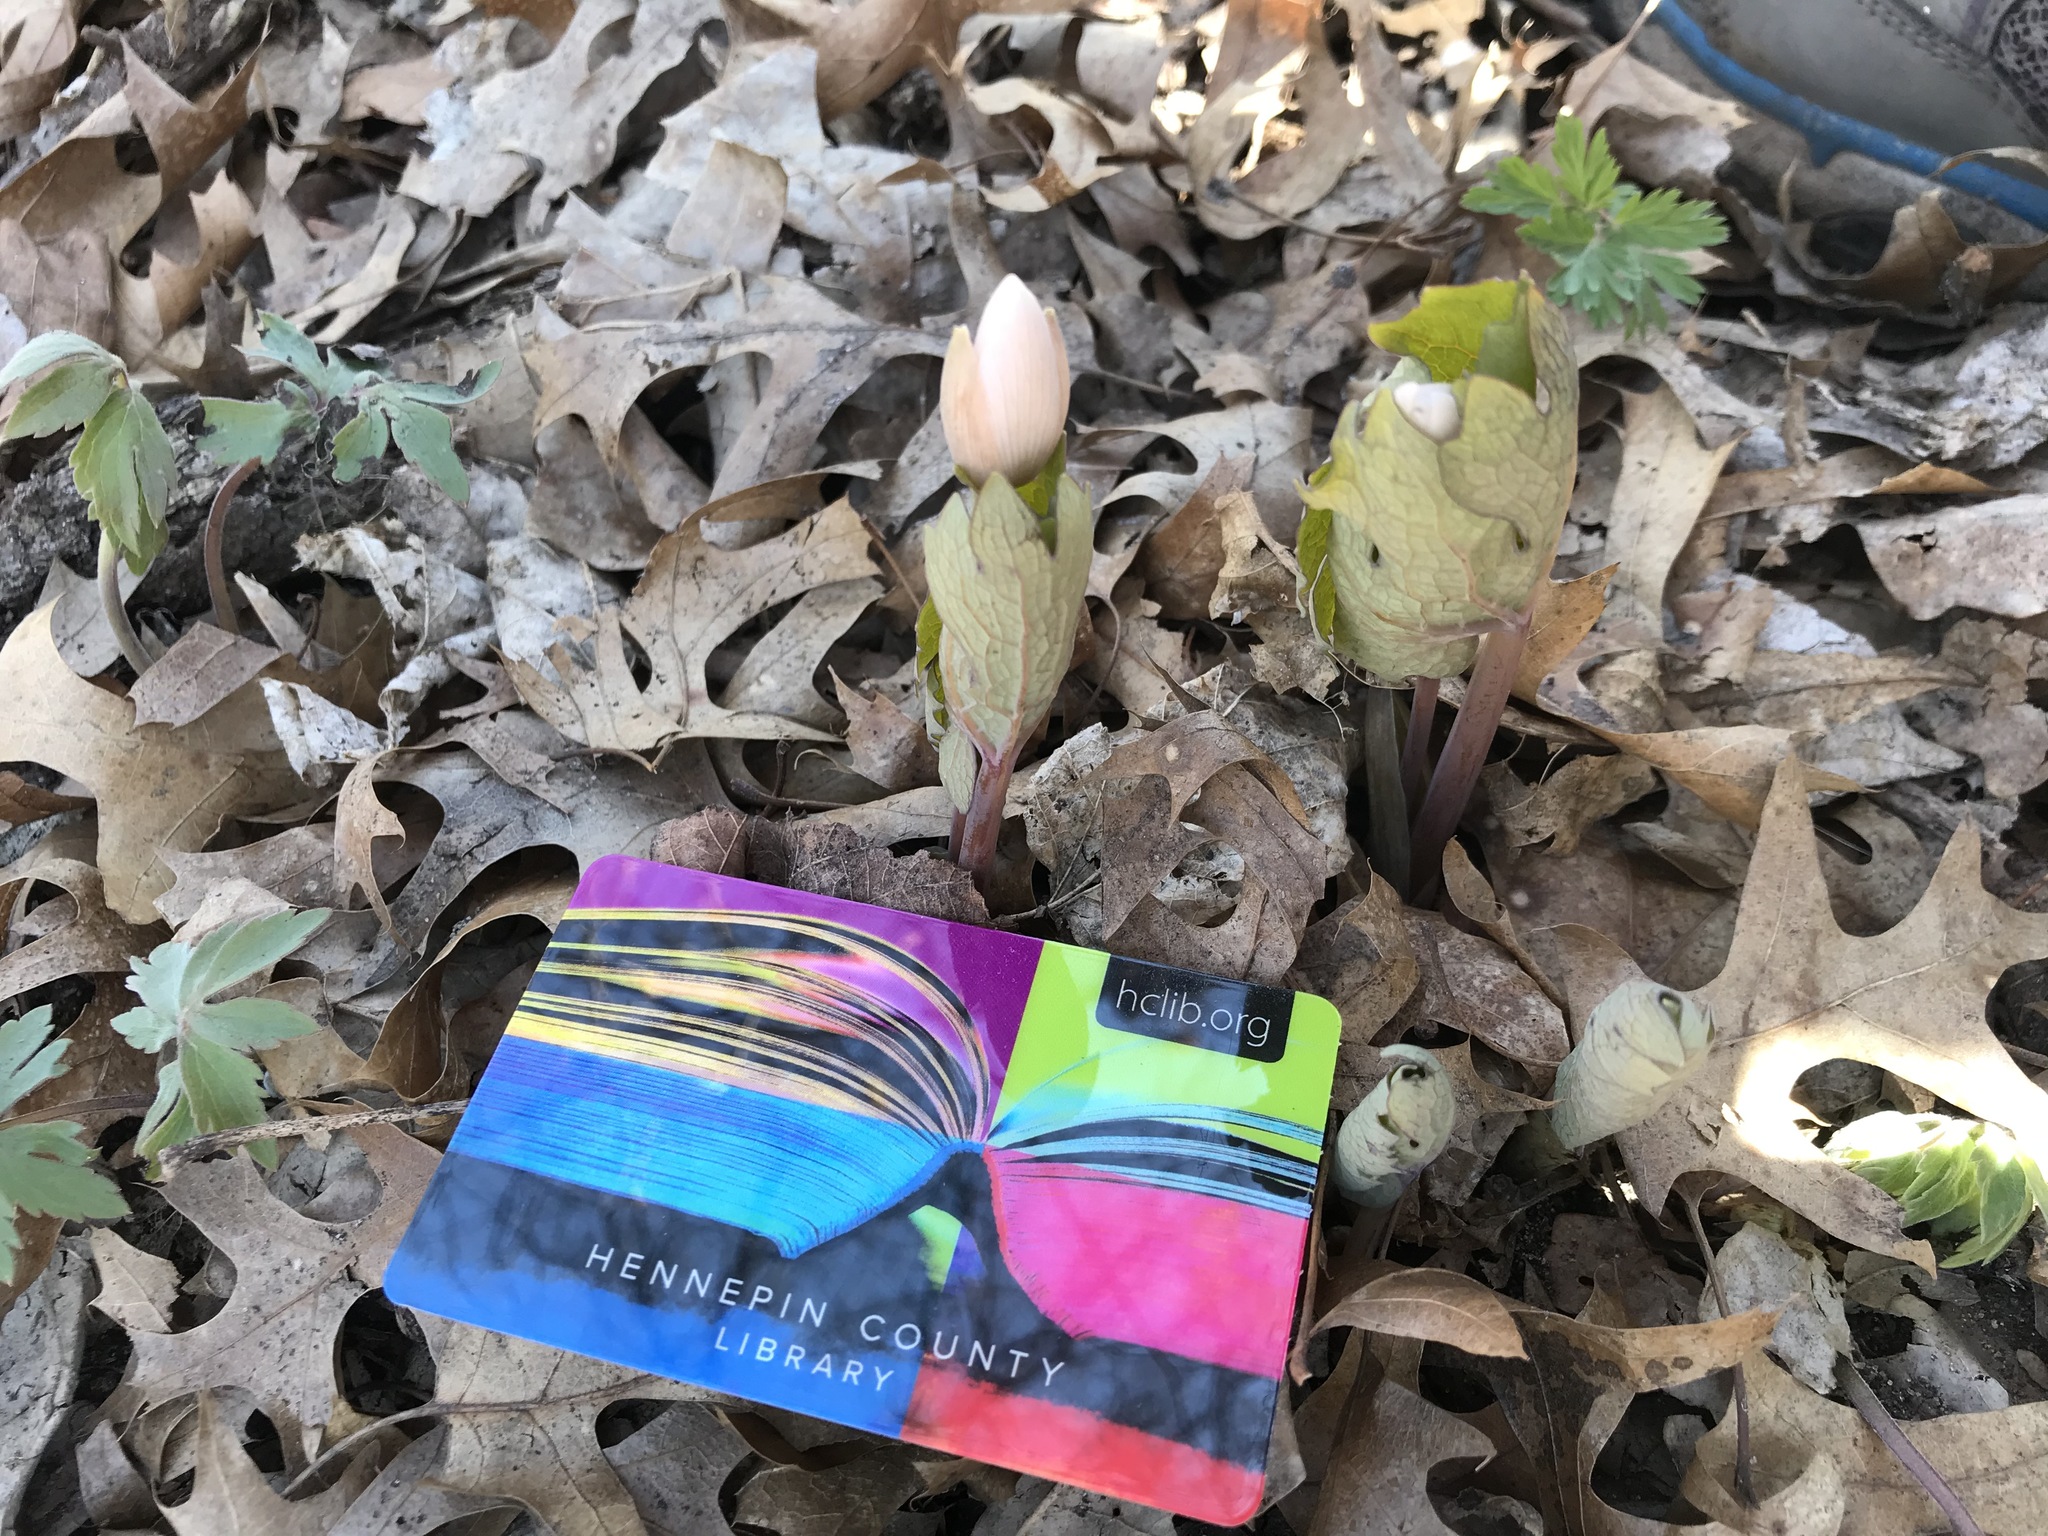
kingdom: Plantae
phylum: Tracheophyta
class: Magnoliopsida
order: Ranunculales
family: Papaveraceae
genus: Sanguinaria
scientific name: Sanguinaria canadensis
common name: Bloodroot
